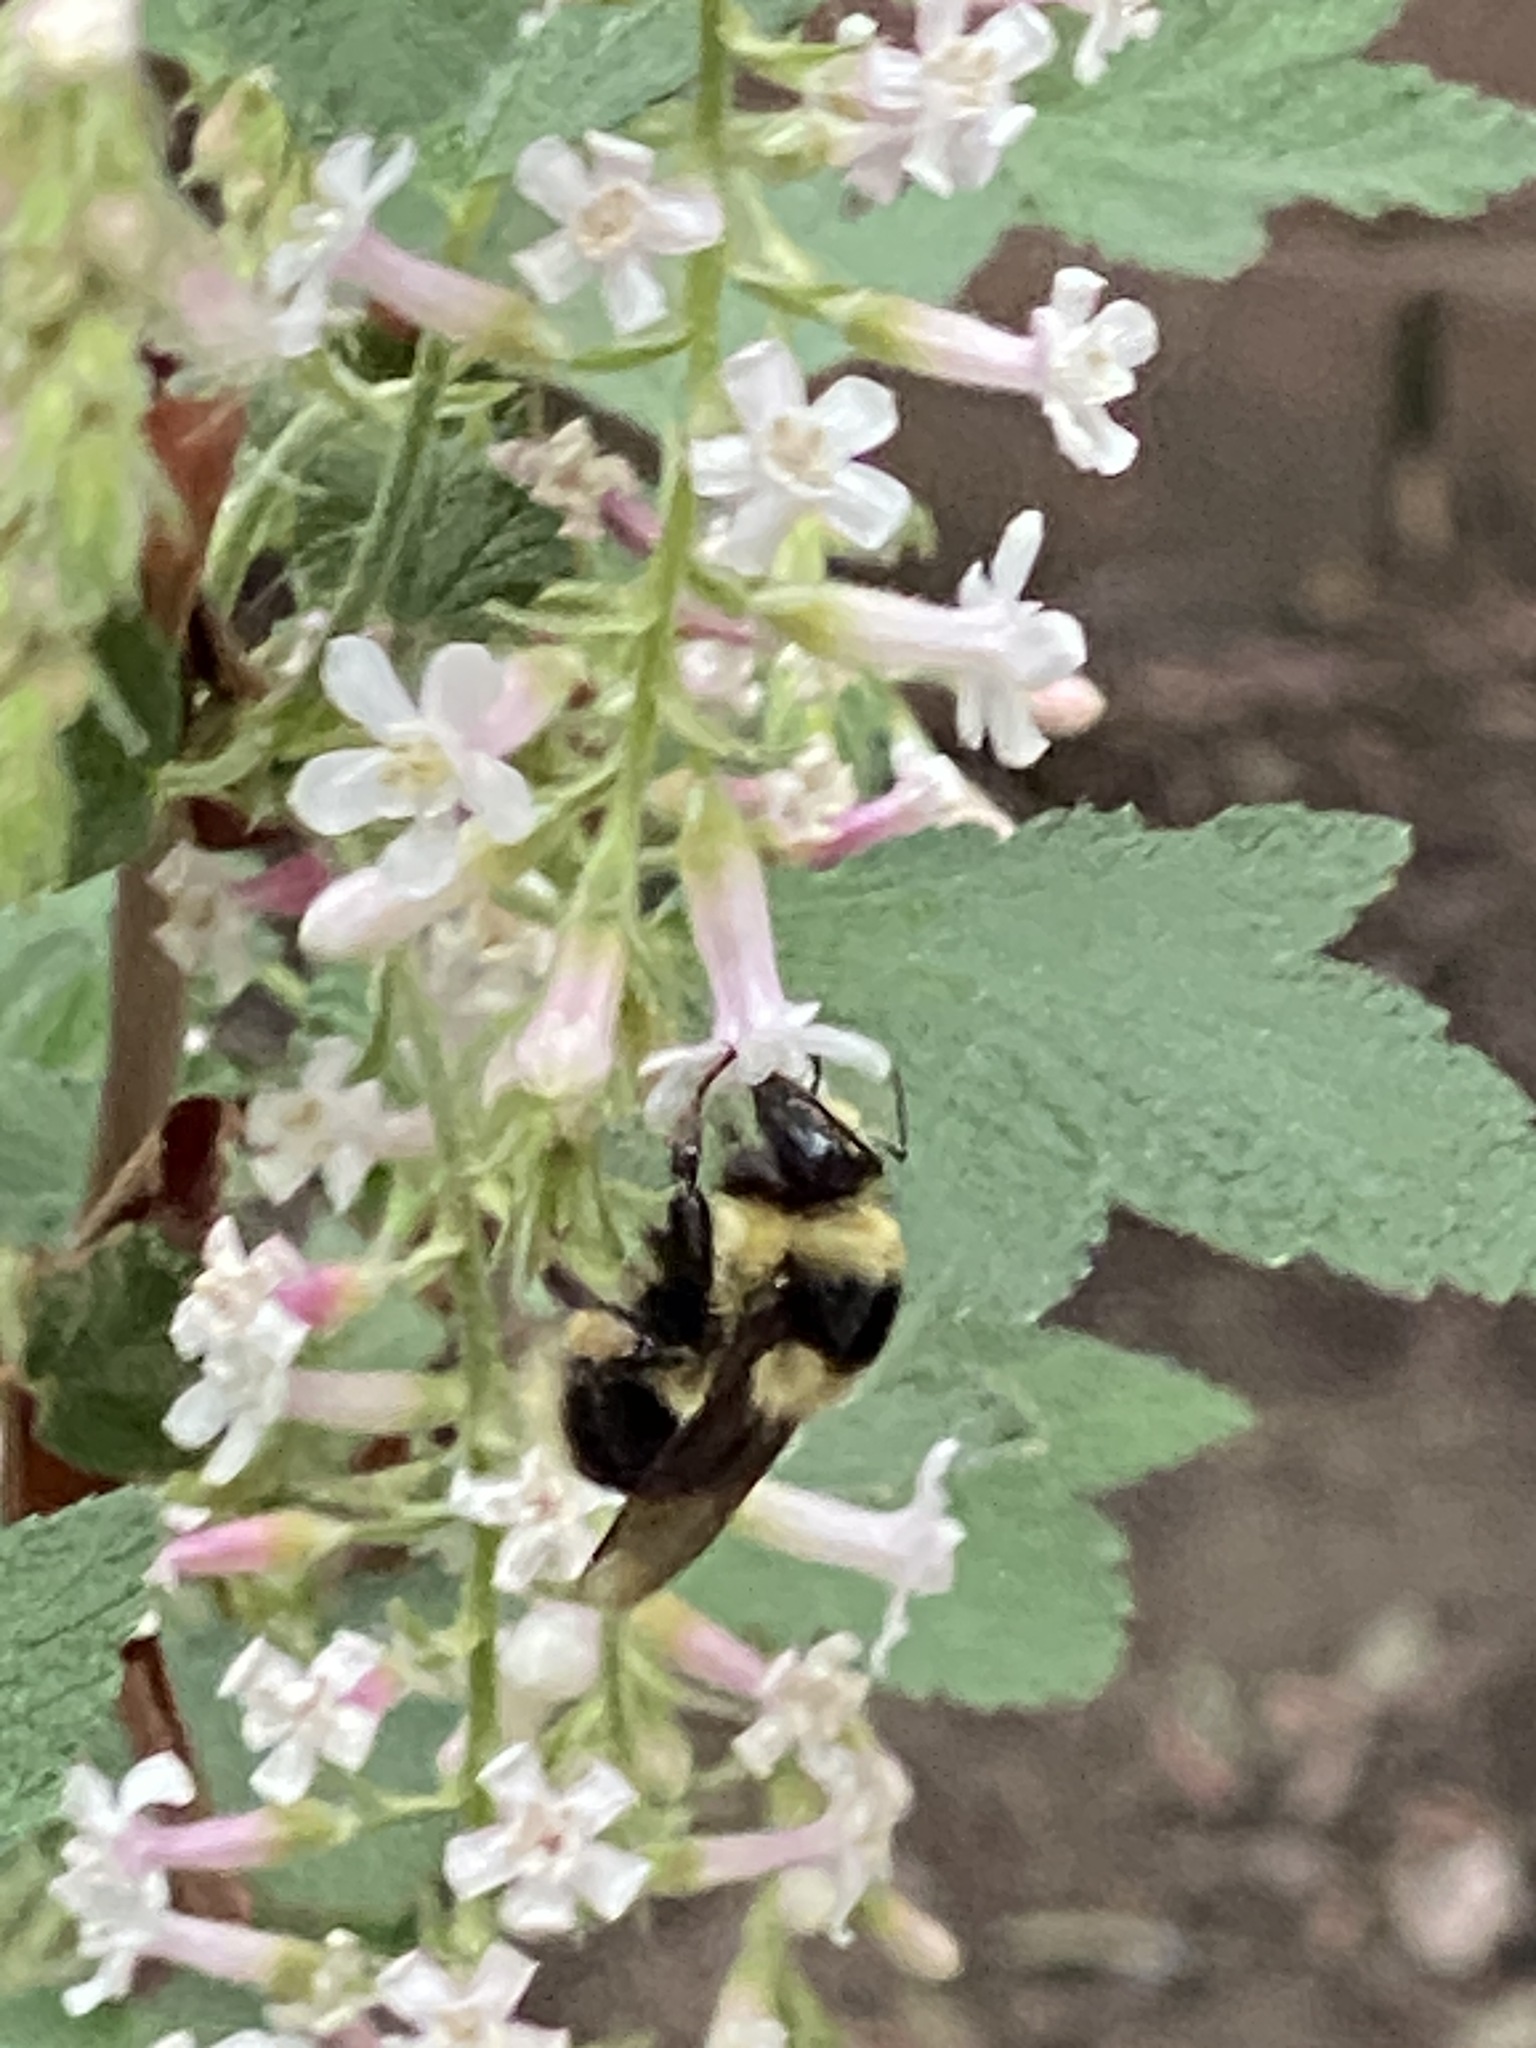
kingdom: Animalia
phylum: Arthropoda
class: Insecta
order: Hymenoptera
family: Apidae
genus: Bombus
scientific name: Bombus melanopygus
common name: Black tail bumble bee
